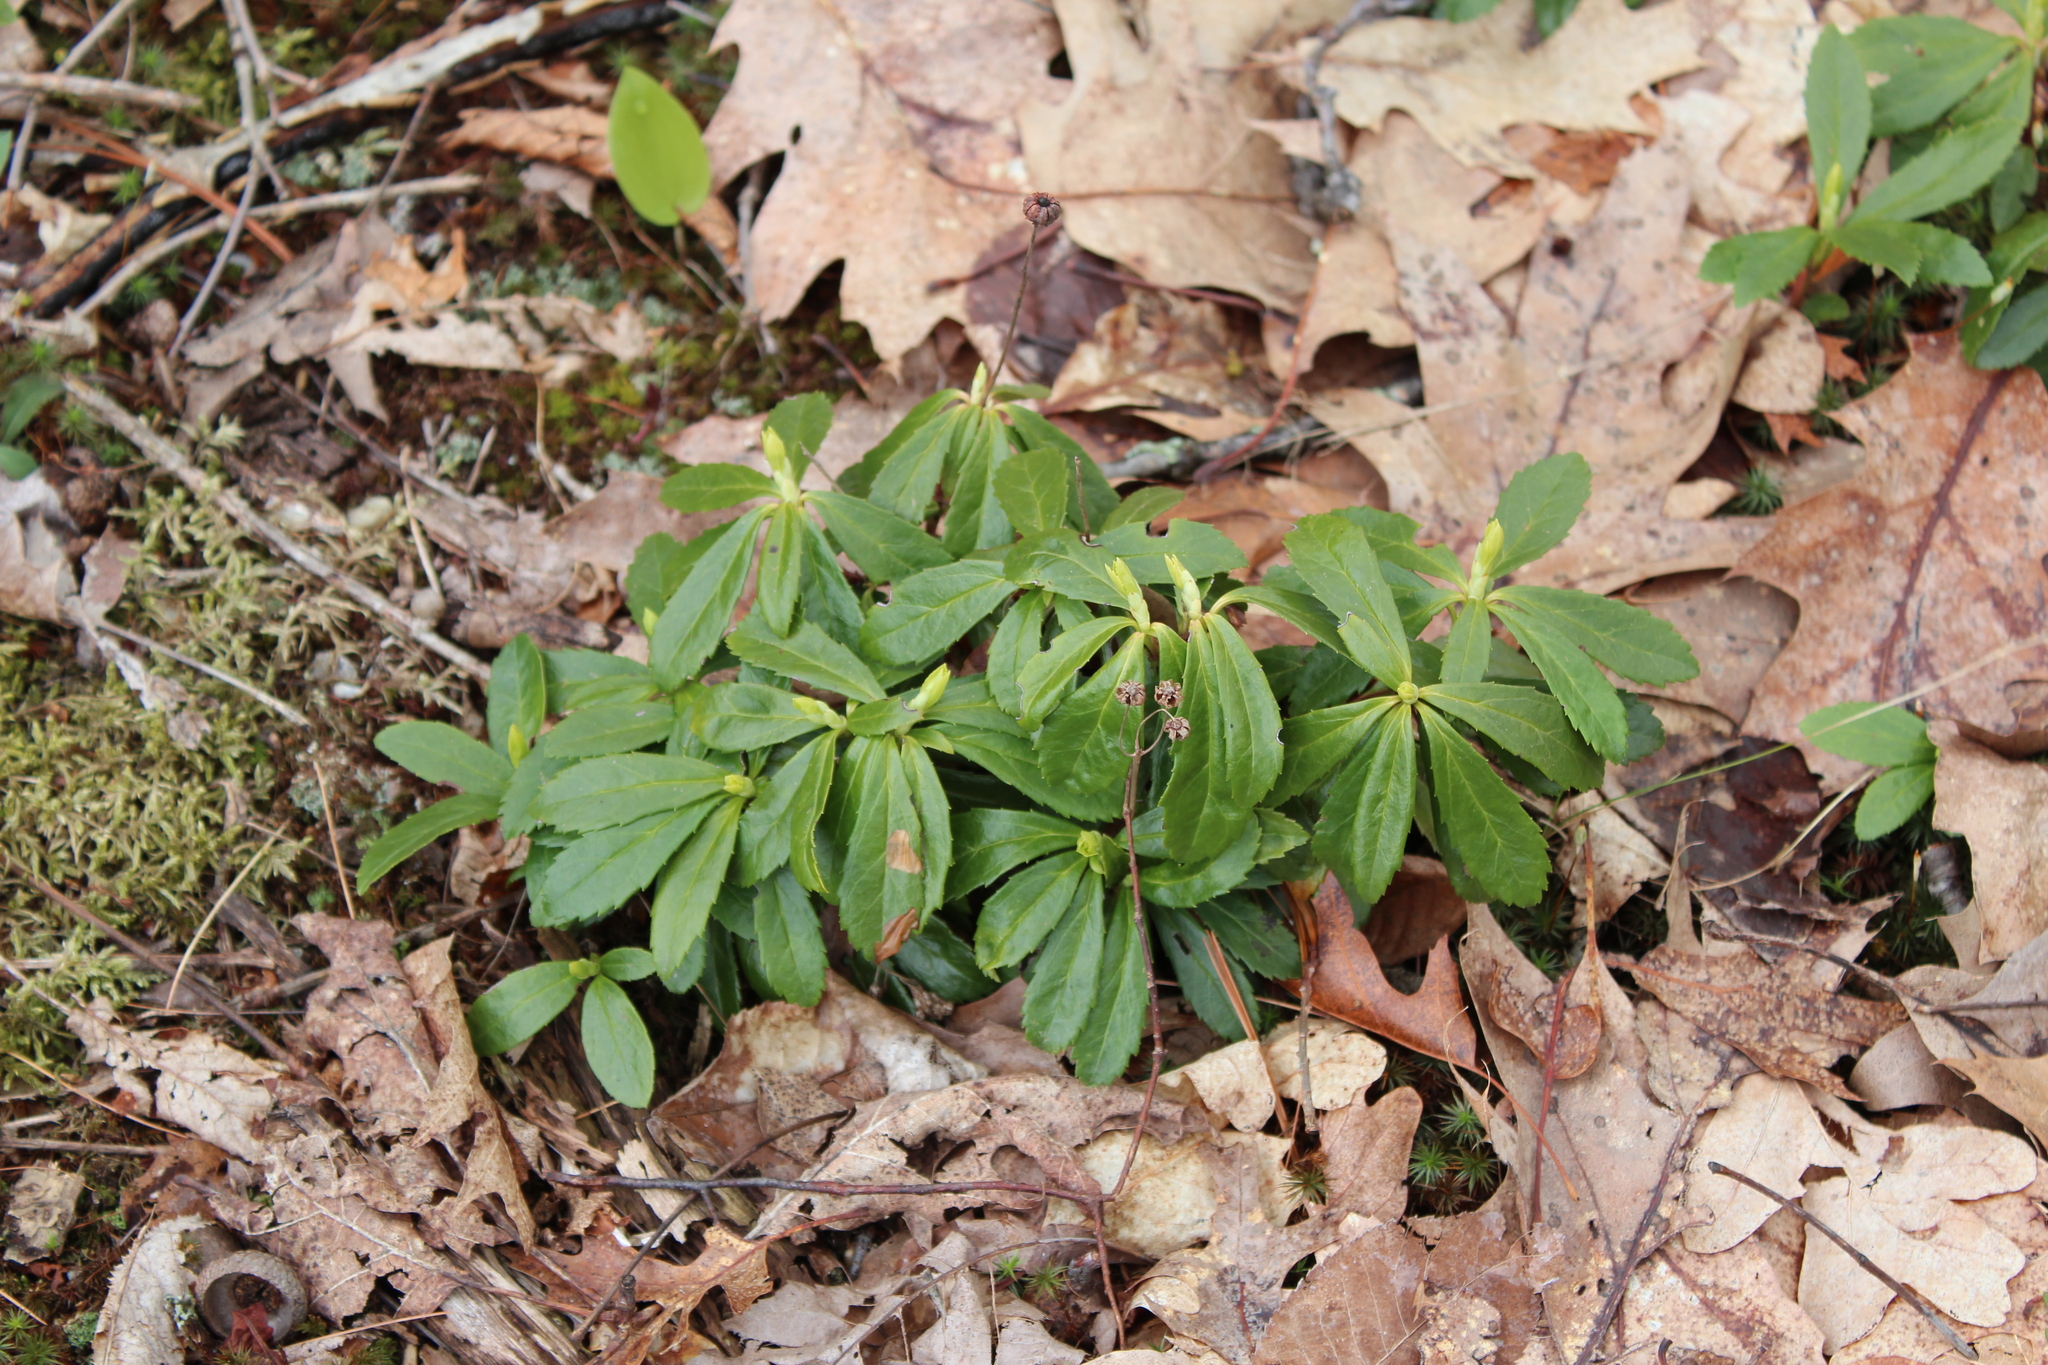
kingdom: Plantae
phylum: Tracheophyta
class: Magnoliopsida
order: Ericales
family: Ericaceae
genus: Chimaphila
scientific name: Chimaphila umbellata
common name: Pipsissewa
